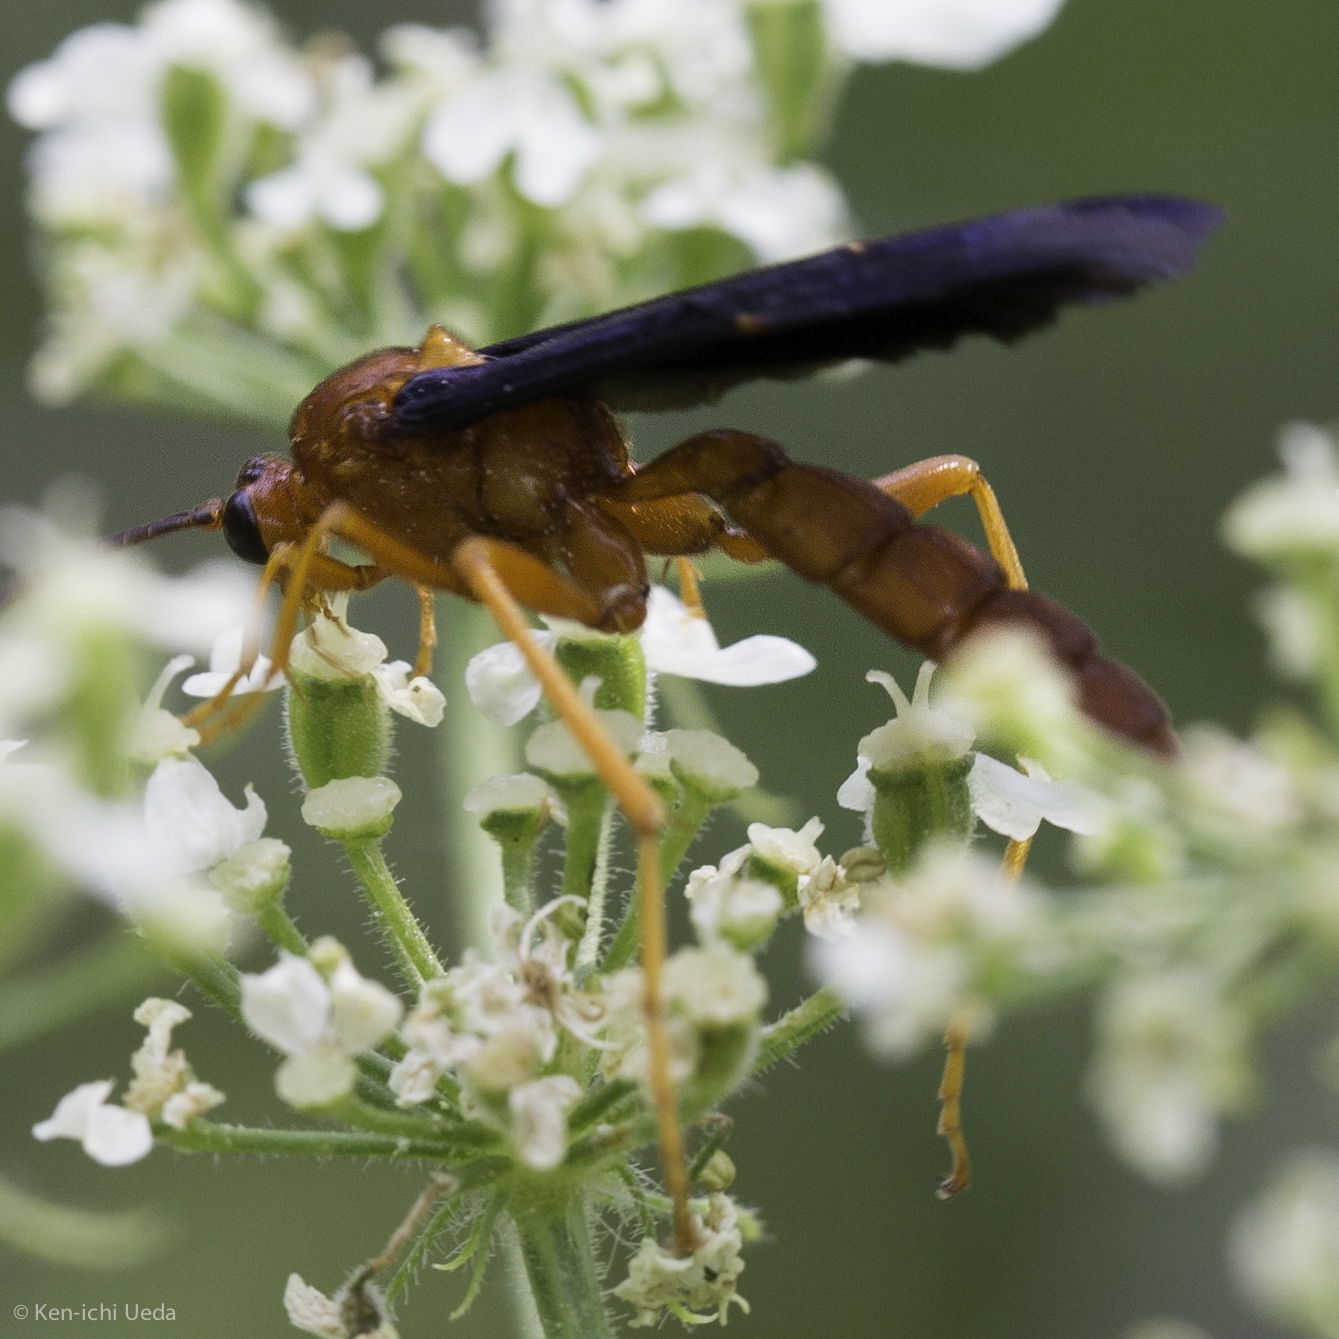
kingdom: Animalia
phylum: Arthropoda
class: Insecta
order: Hymenoptera
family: Ichneumonidae
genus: Trogus
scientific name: Trogus edwardsii
